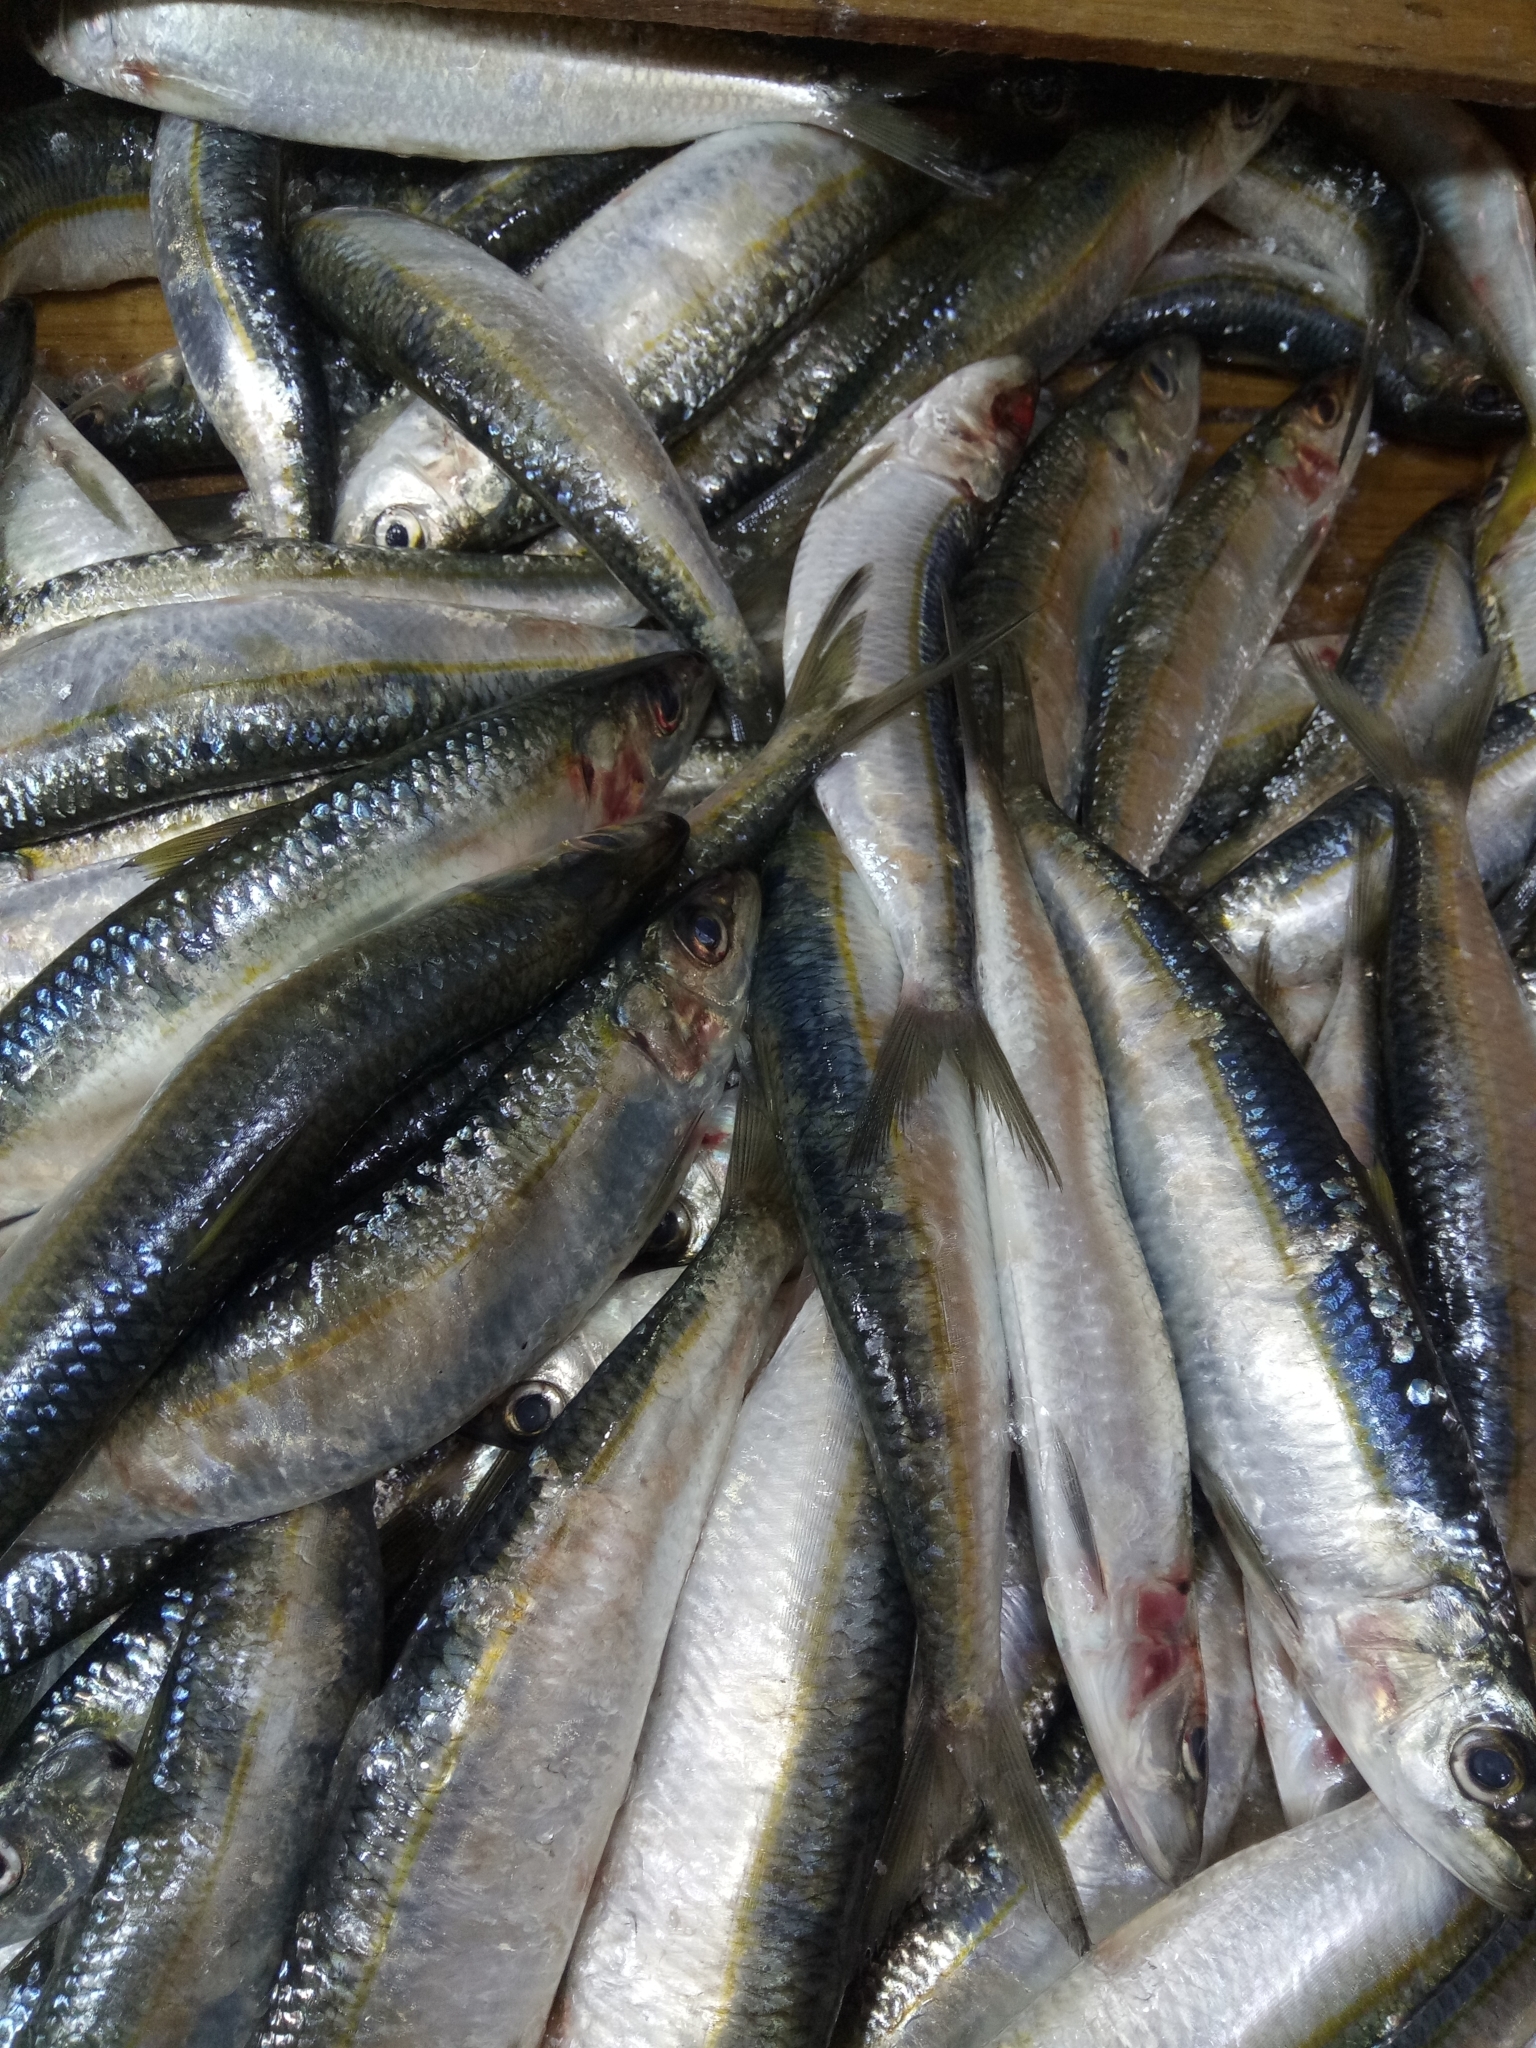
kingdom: Animalia
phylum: Chordata
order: Clupeiformes
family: Clupeidae
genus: Sardinella
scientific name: Sardinella aurita
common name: Round sardinella
